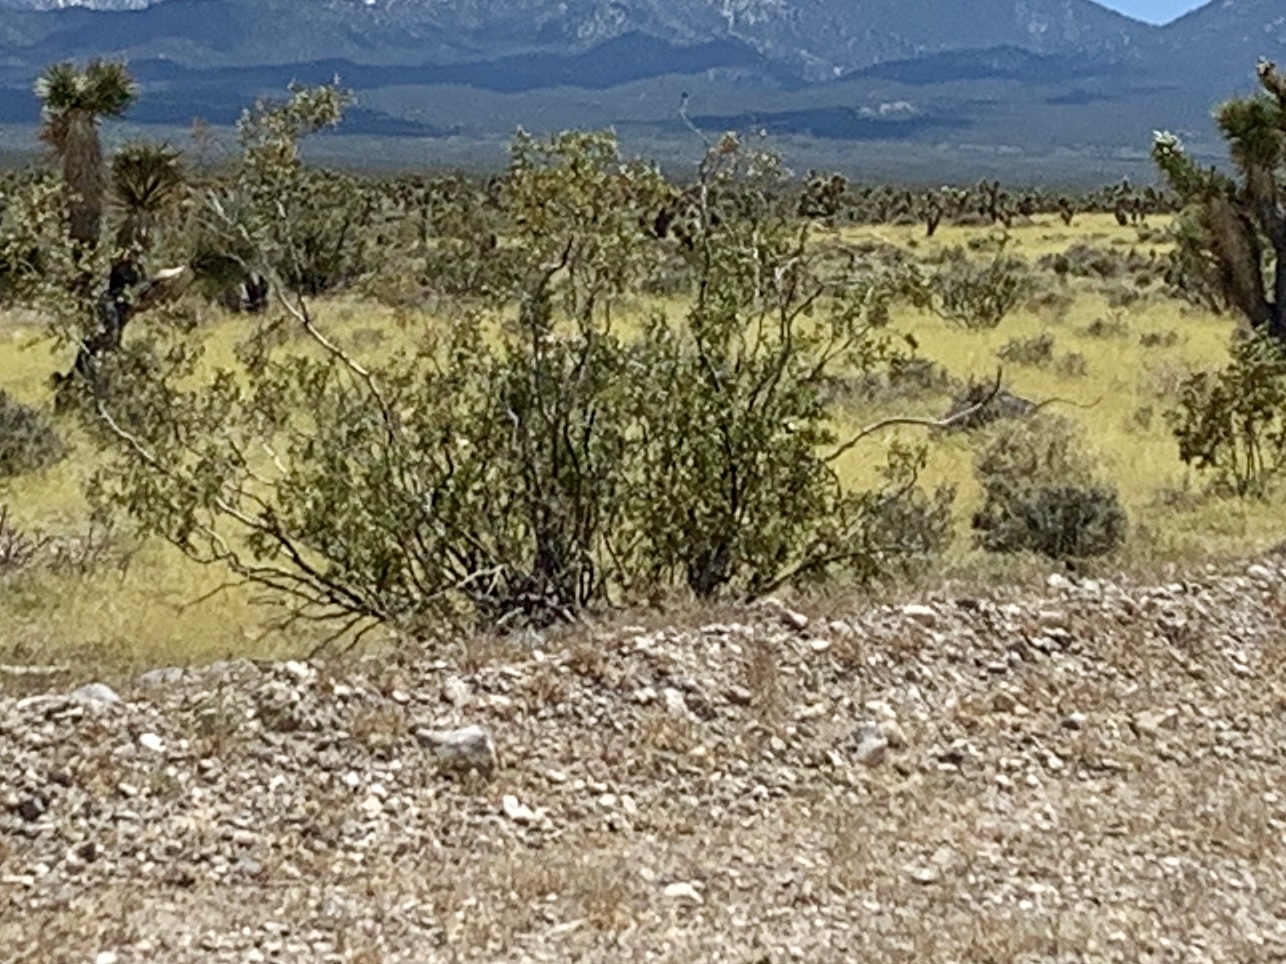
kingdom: Plantae
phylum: Tracheophyta
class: Magnoliopsida
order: Zygophyllales
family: Zygophyllaceae
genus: Larrea
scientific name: Larrea tridentata
